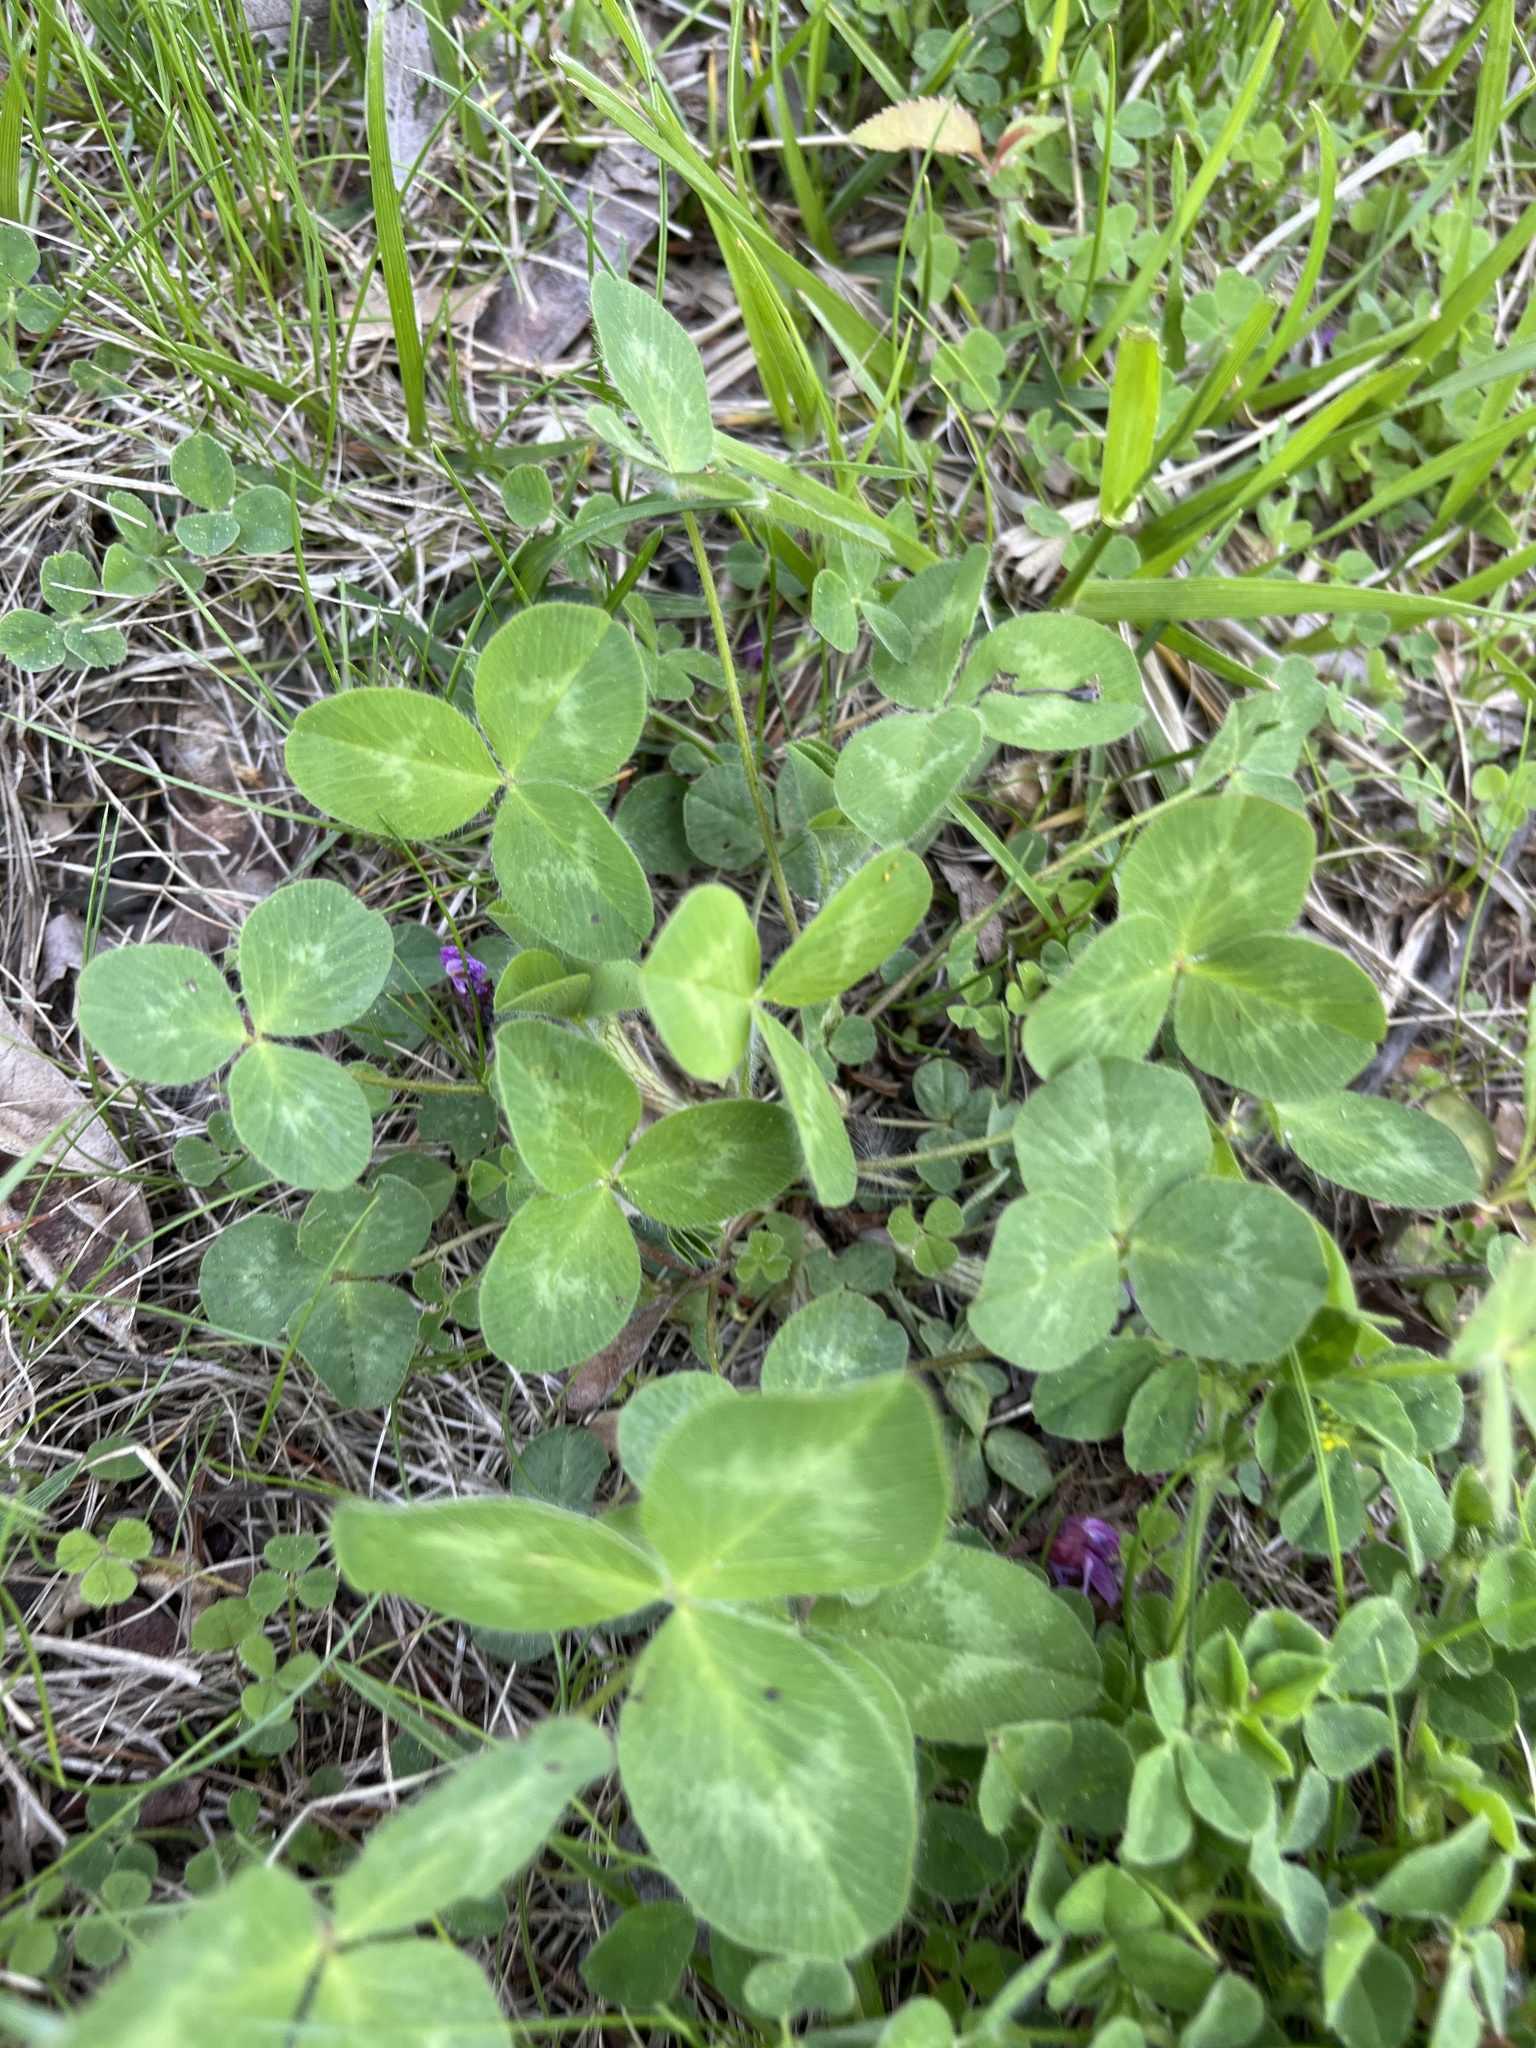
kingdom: Plantae
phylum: Tracheophyta
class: Magnoliopsida
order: Fabales
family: Fabaceae
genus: Trifolium
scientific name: Trifolium pratense
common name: Red clover
